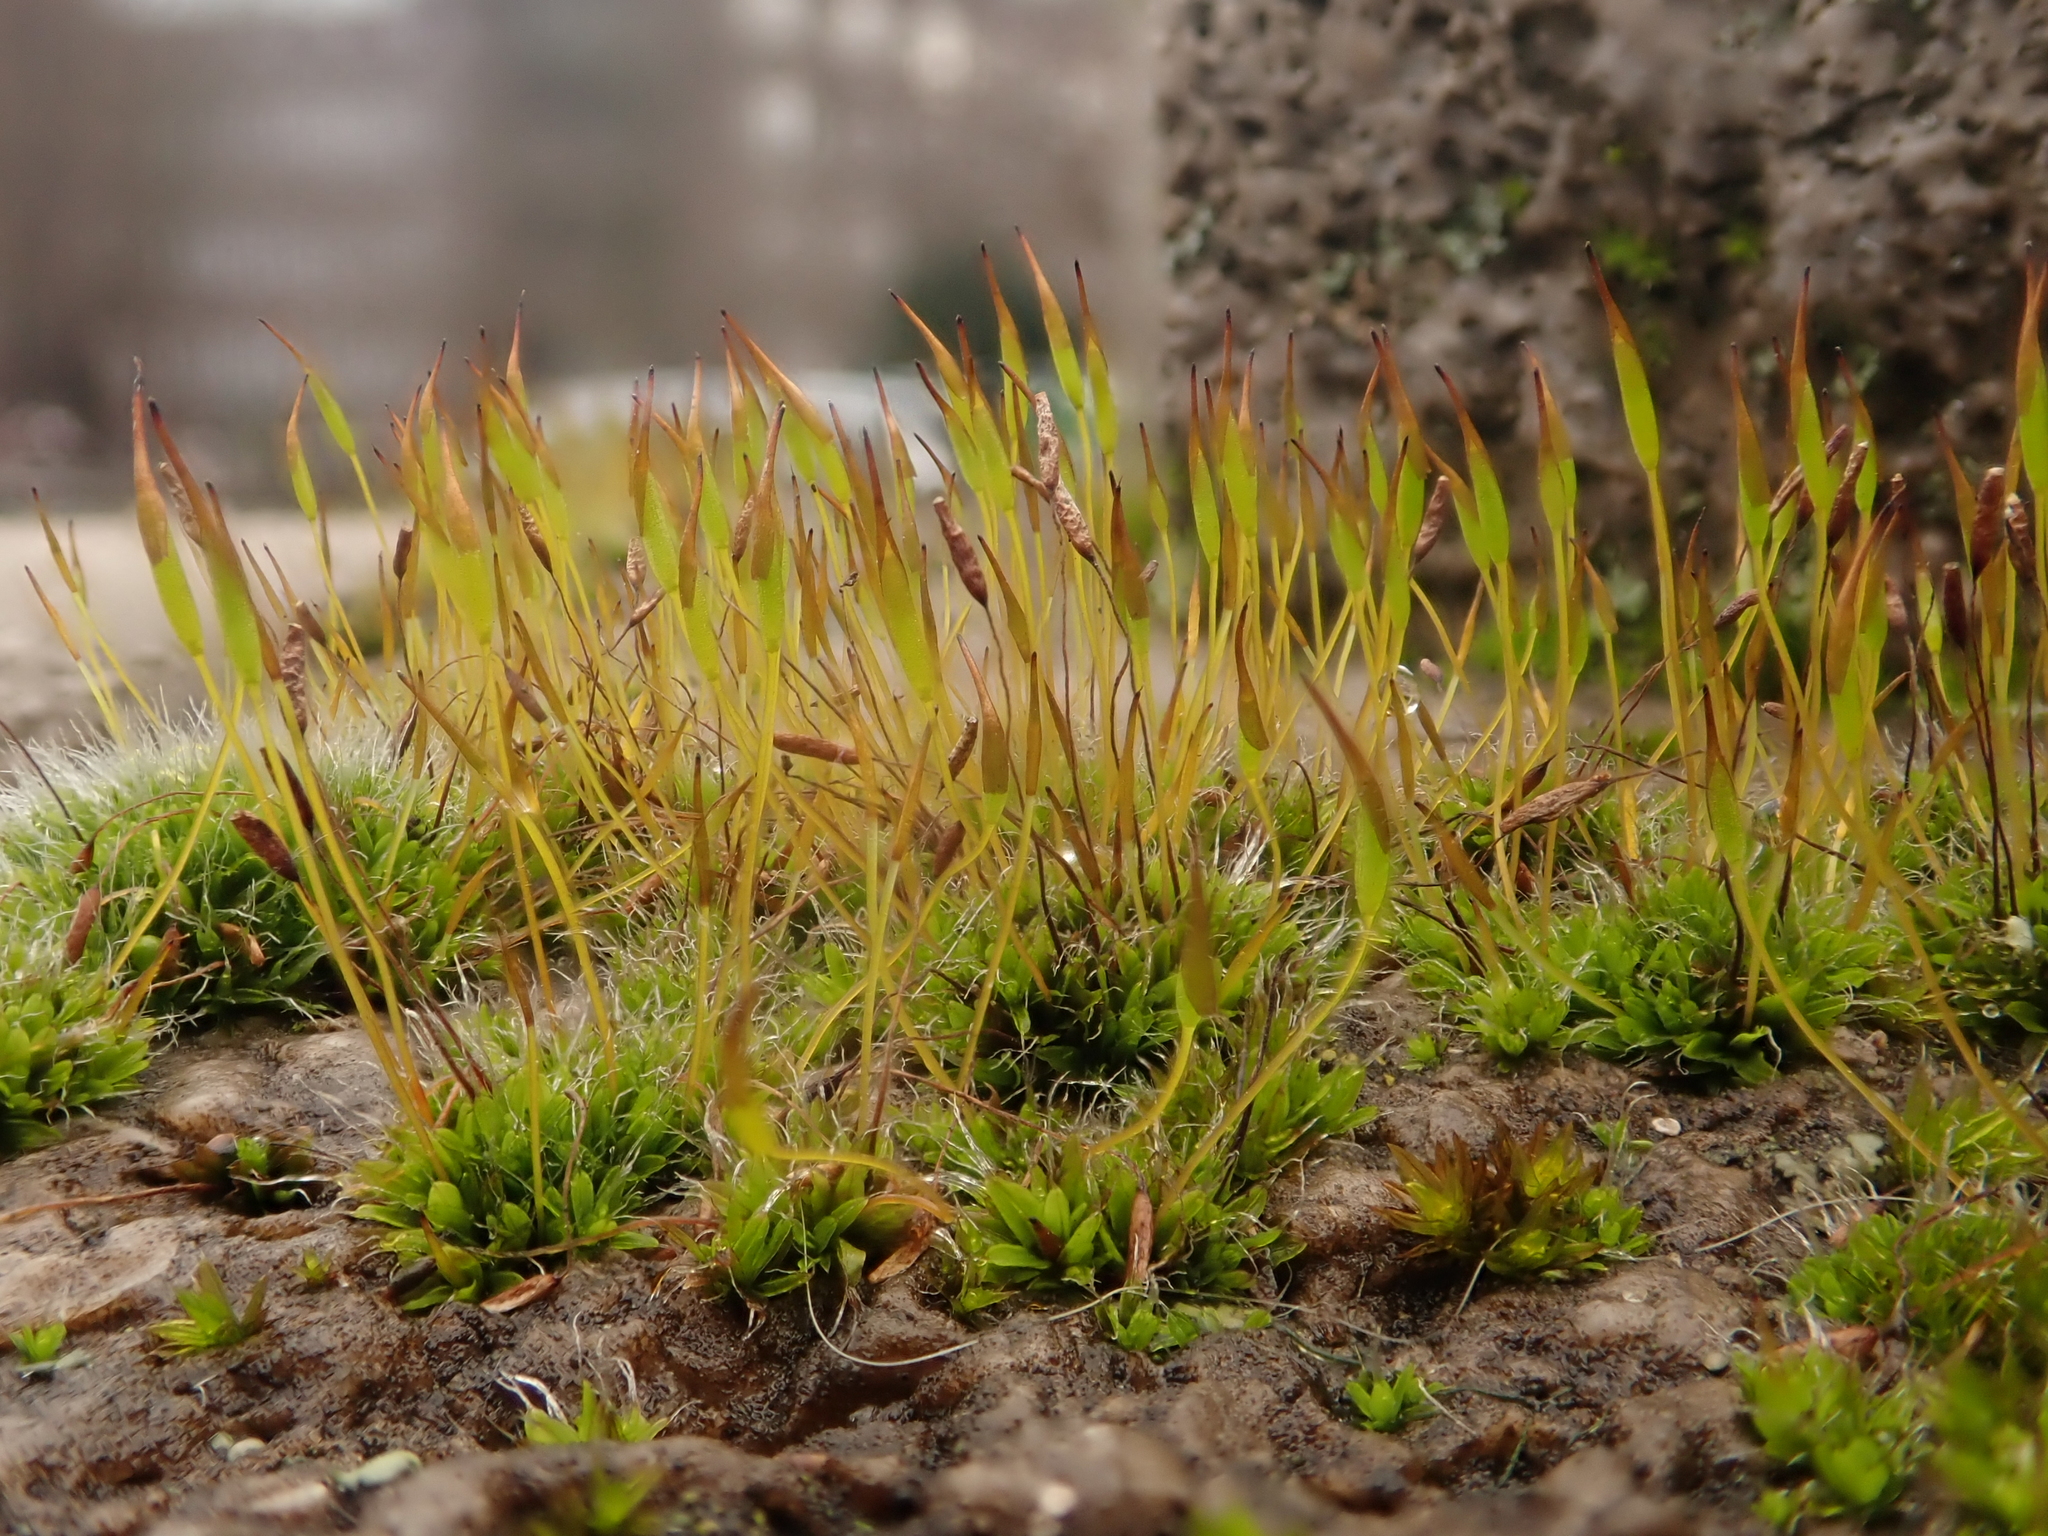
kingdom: Plantae
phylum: Bryophyta
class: Bryopsida
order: Pottiales
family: Pottiaceae
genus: Tortula
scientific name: Tortula muralis
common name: Wall screw-moss
